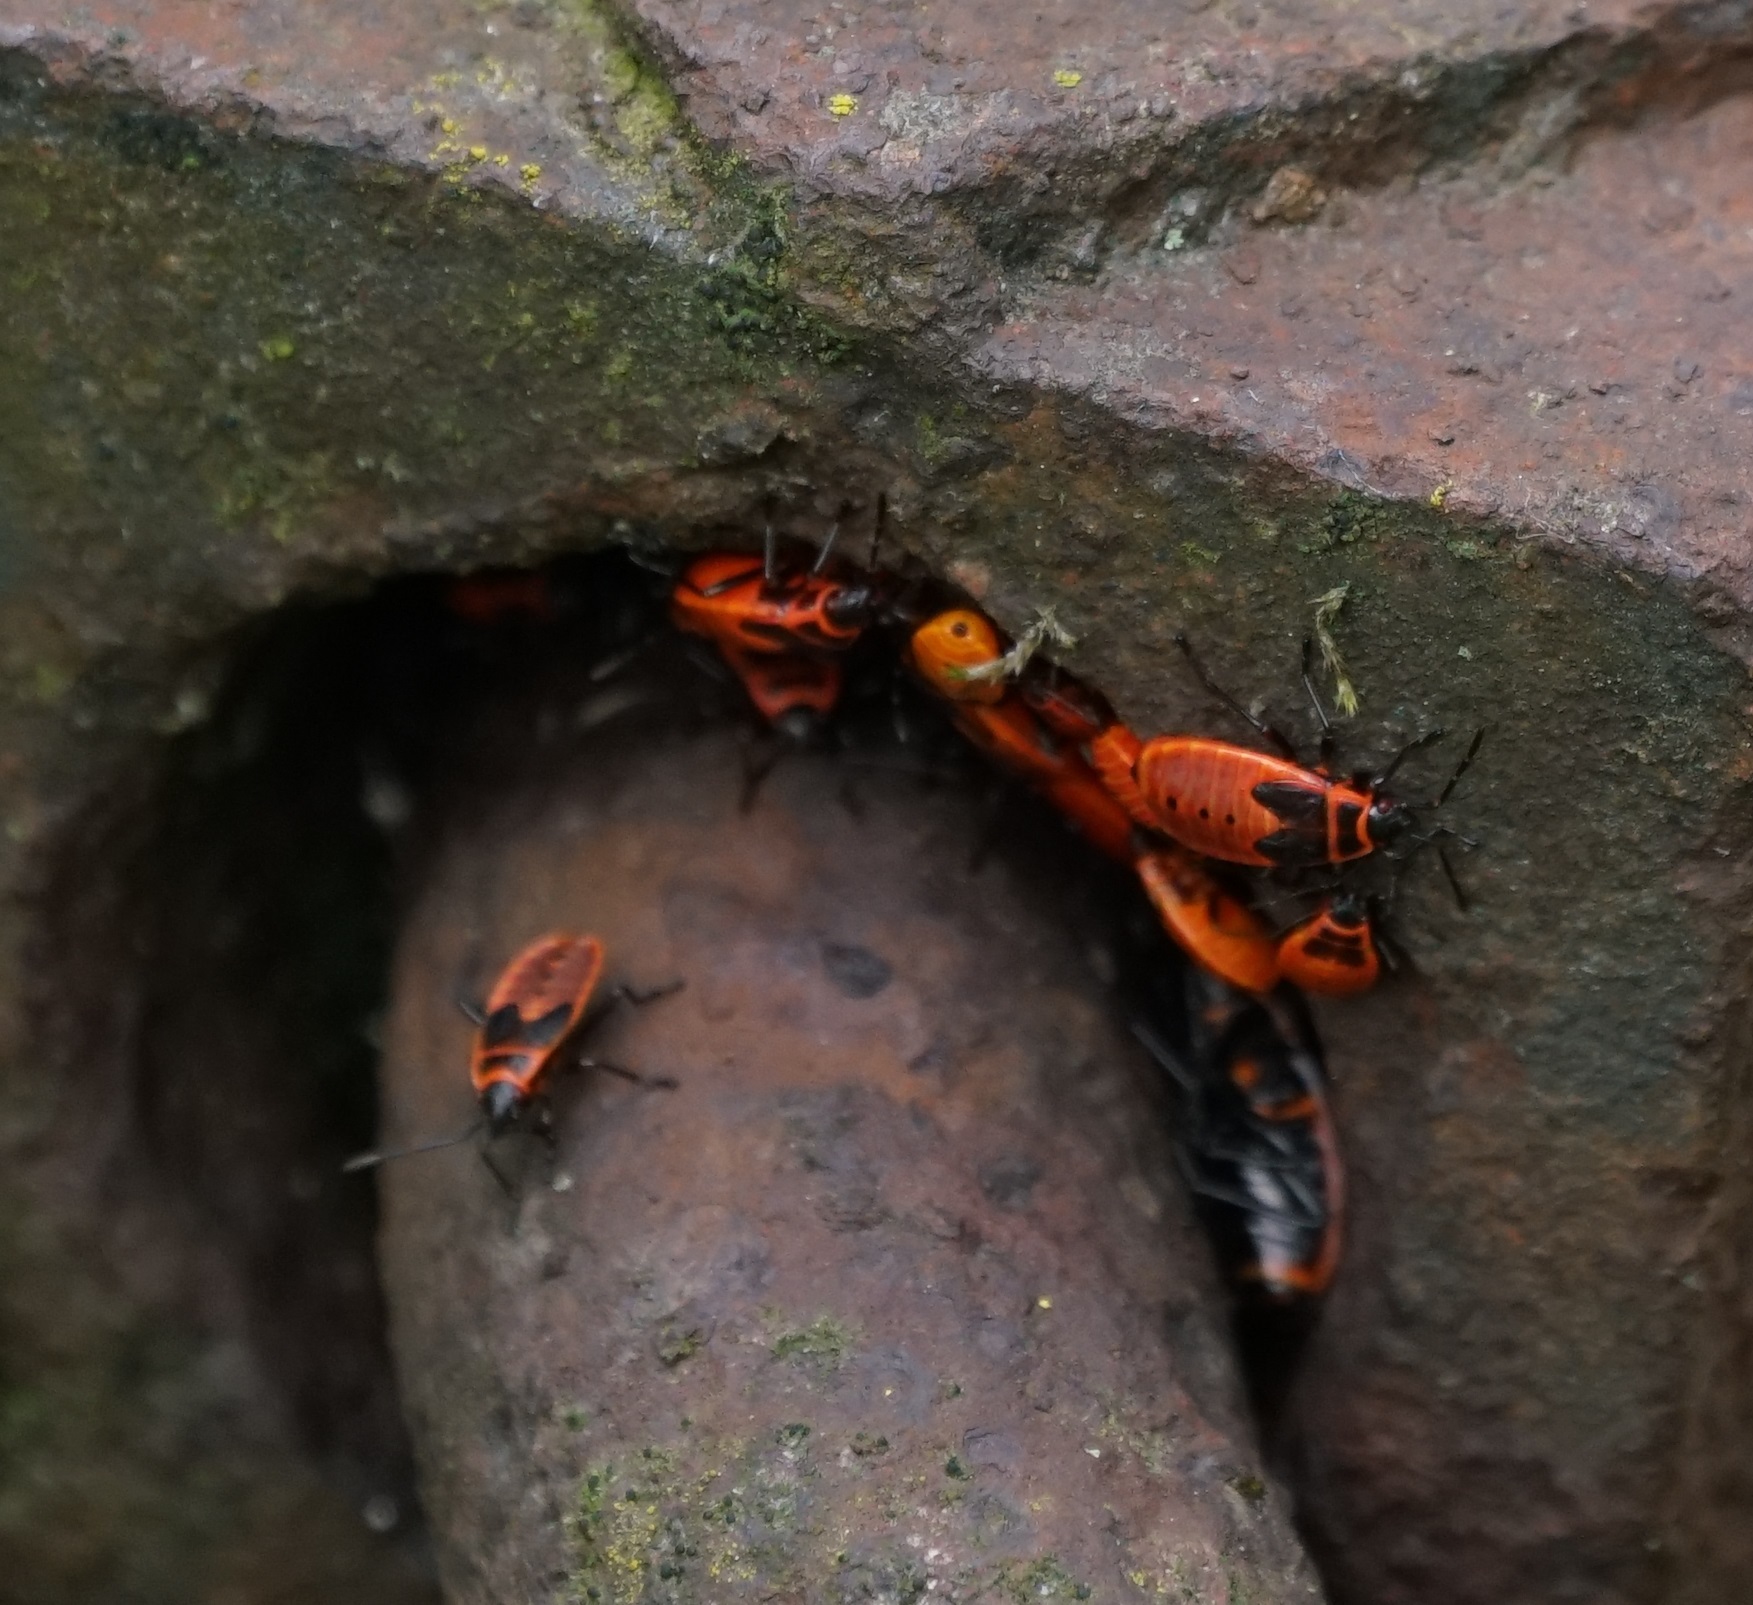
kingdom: Animalia
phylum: Arthropoda
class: Insecta
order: Hemiptera
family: Pyrrhocoridae
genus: Pyrrhocoris
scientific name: Pyrrhocoris apterus
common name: Firebug
